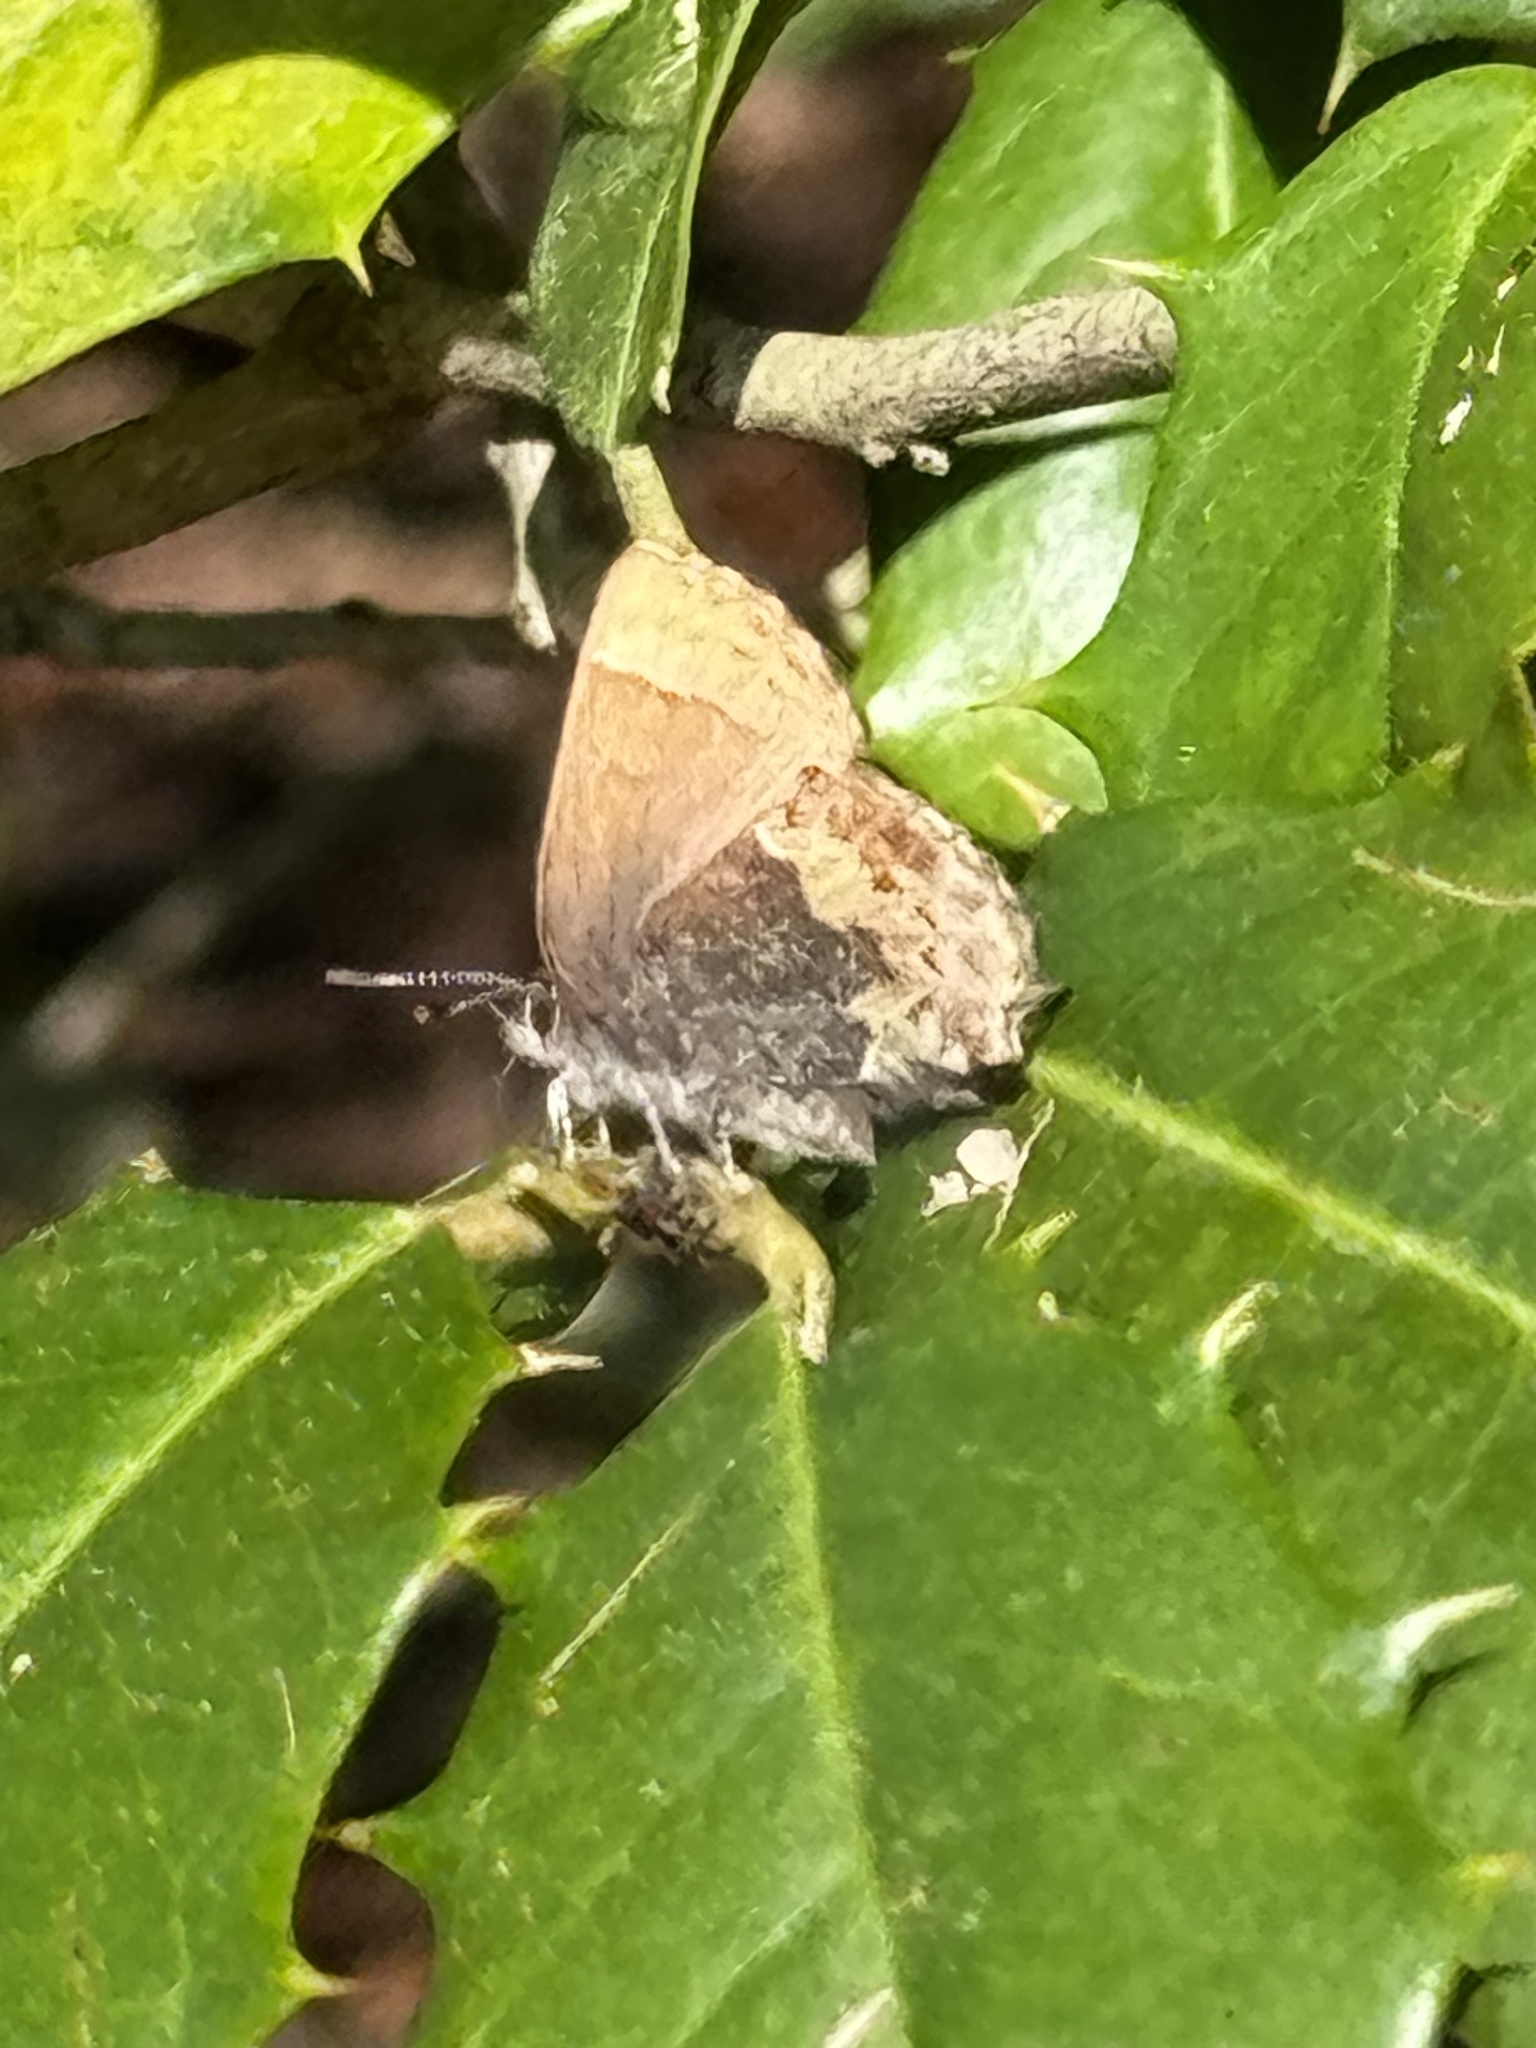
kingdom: Animalia
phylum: Arthropoda
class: Insecta
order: Lepidoptera
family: Lycaenidae
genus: Incisalia
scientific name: Incisalia henrici
